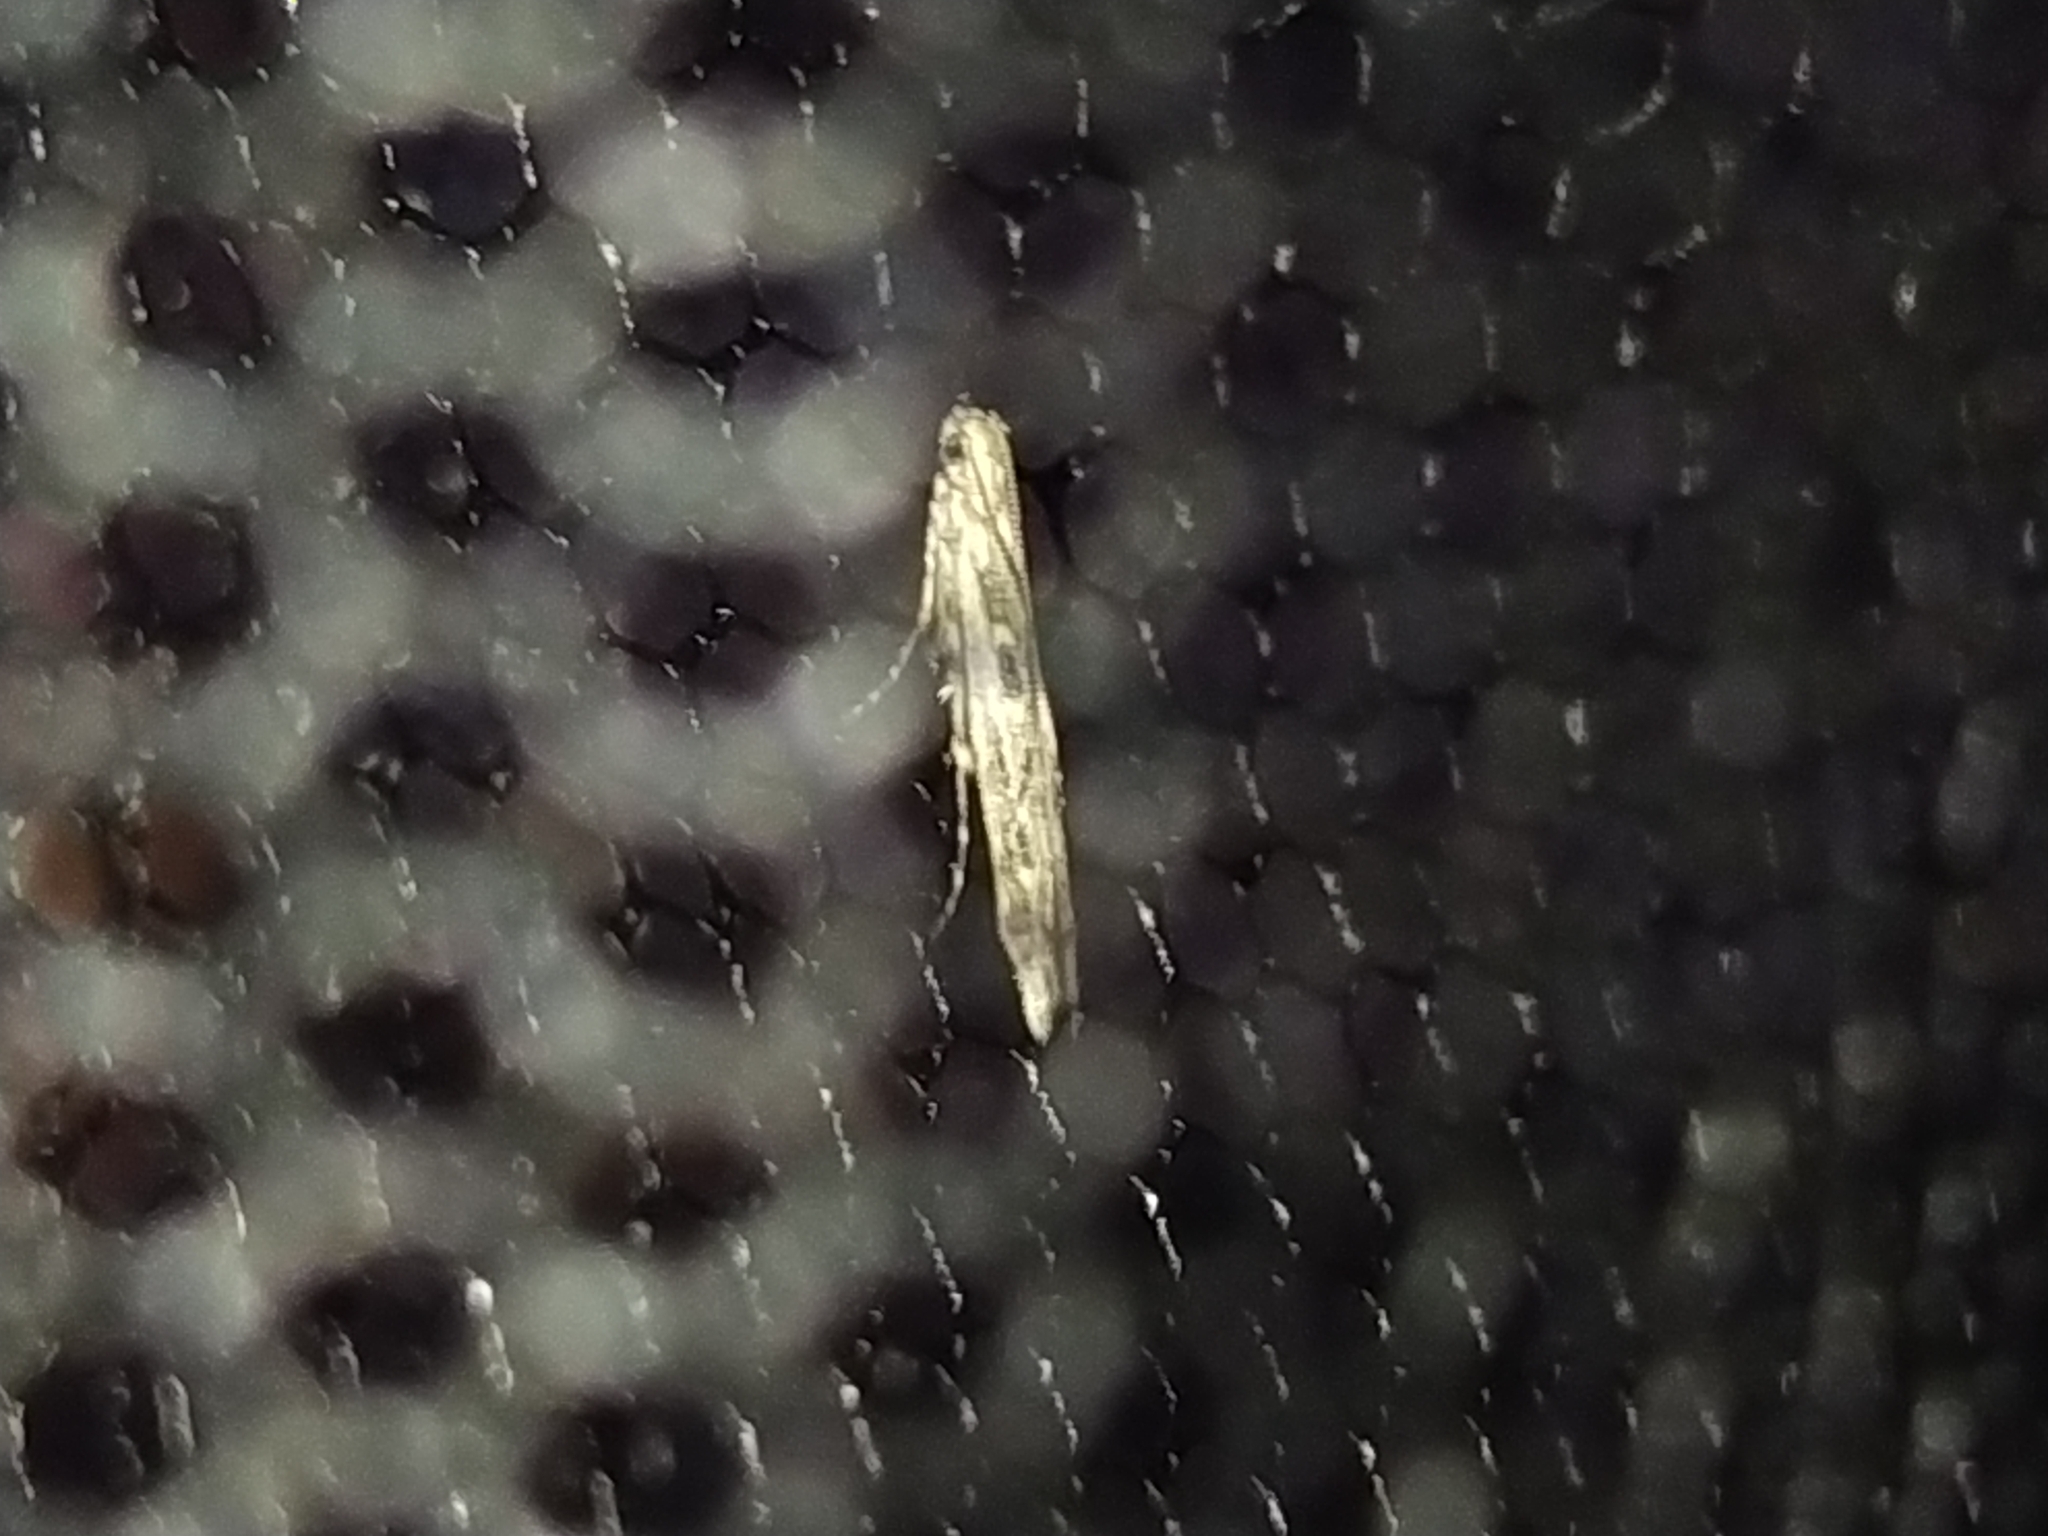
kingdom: Animalia
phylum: Arthropoda
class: Insecta
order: Lepidoptera
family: Batrachedridae
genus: Batrachedra
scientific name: Batrachedra praeangusta
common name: Poplar cosmet
